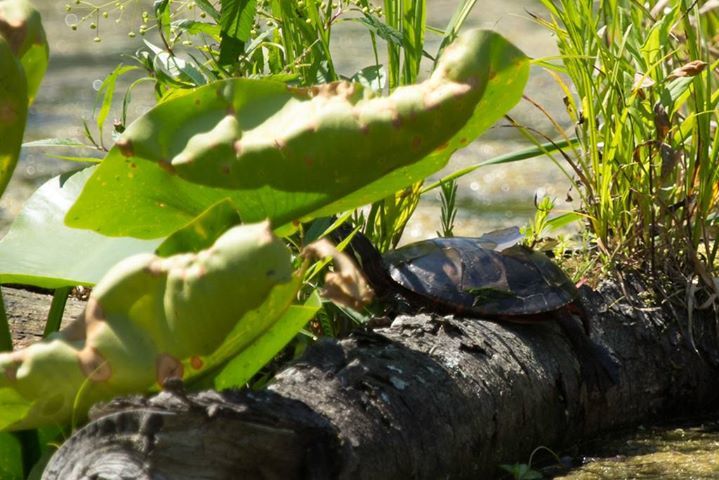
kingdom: Animalia
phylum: Chordata
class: Testudines
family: Emydidae
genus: Chrysemys
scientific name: Chrysemys picta
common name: Painted turtle
